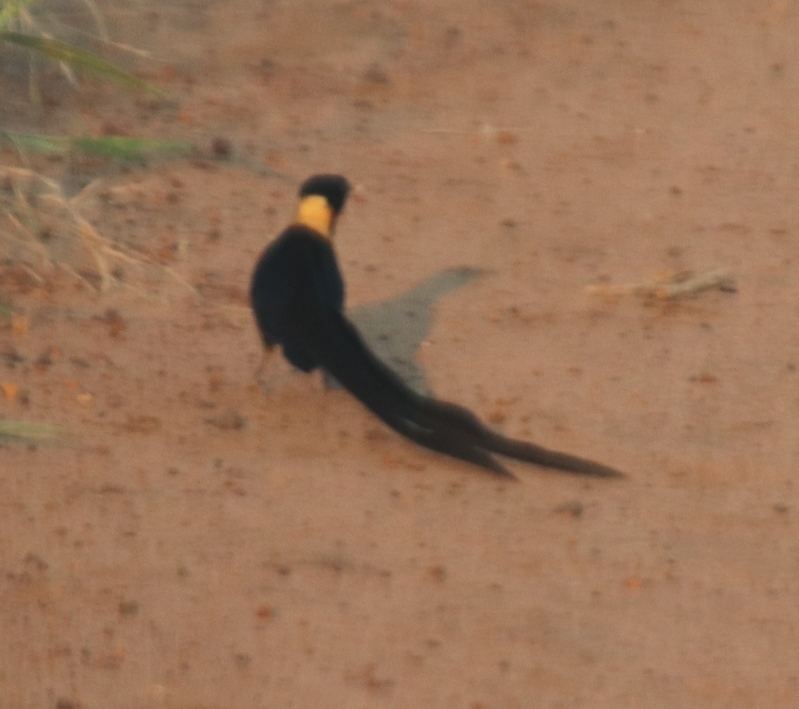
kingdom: Animalia
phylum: Chordata
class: Aves
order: Passeriformes
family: Viduidae
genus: Vidua
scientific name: Vidua paradisaea
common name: Long-tailed paradise whydah
